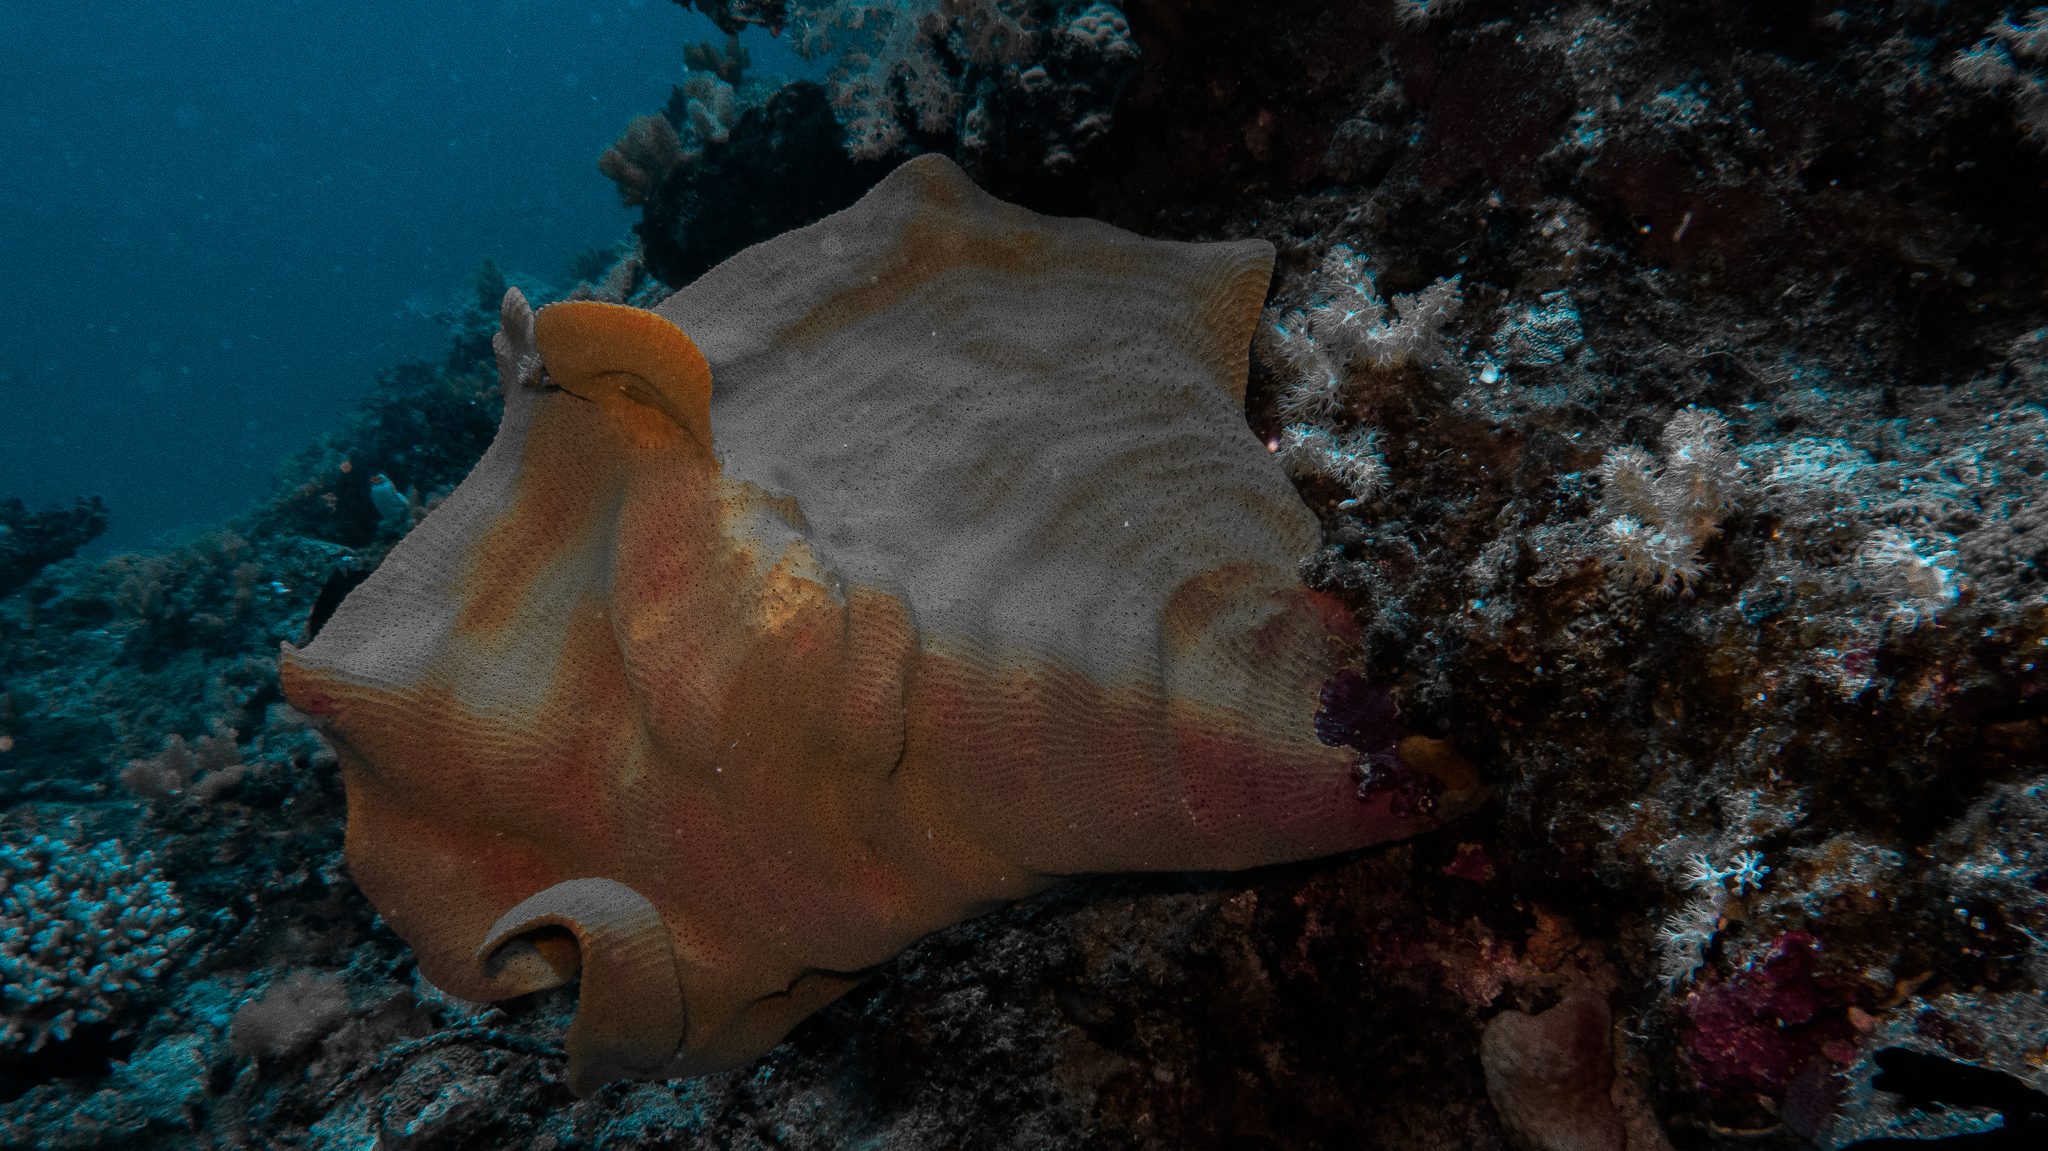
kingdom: Animalia
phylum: Porifera
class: Demospongiae
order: Verongiida
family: Ianthellidae
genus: Ianthella
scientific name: Ianthella basta
